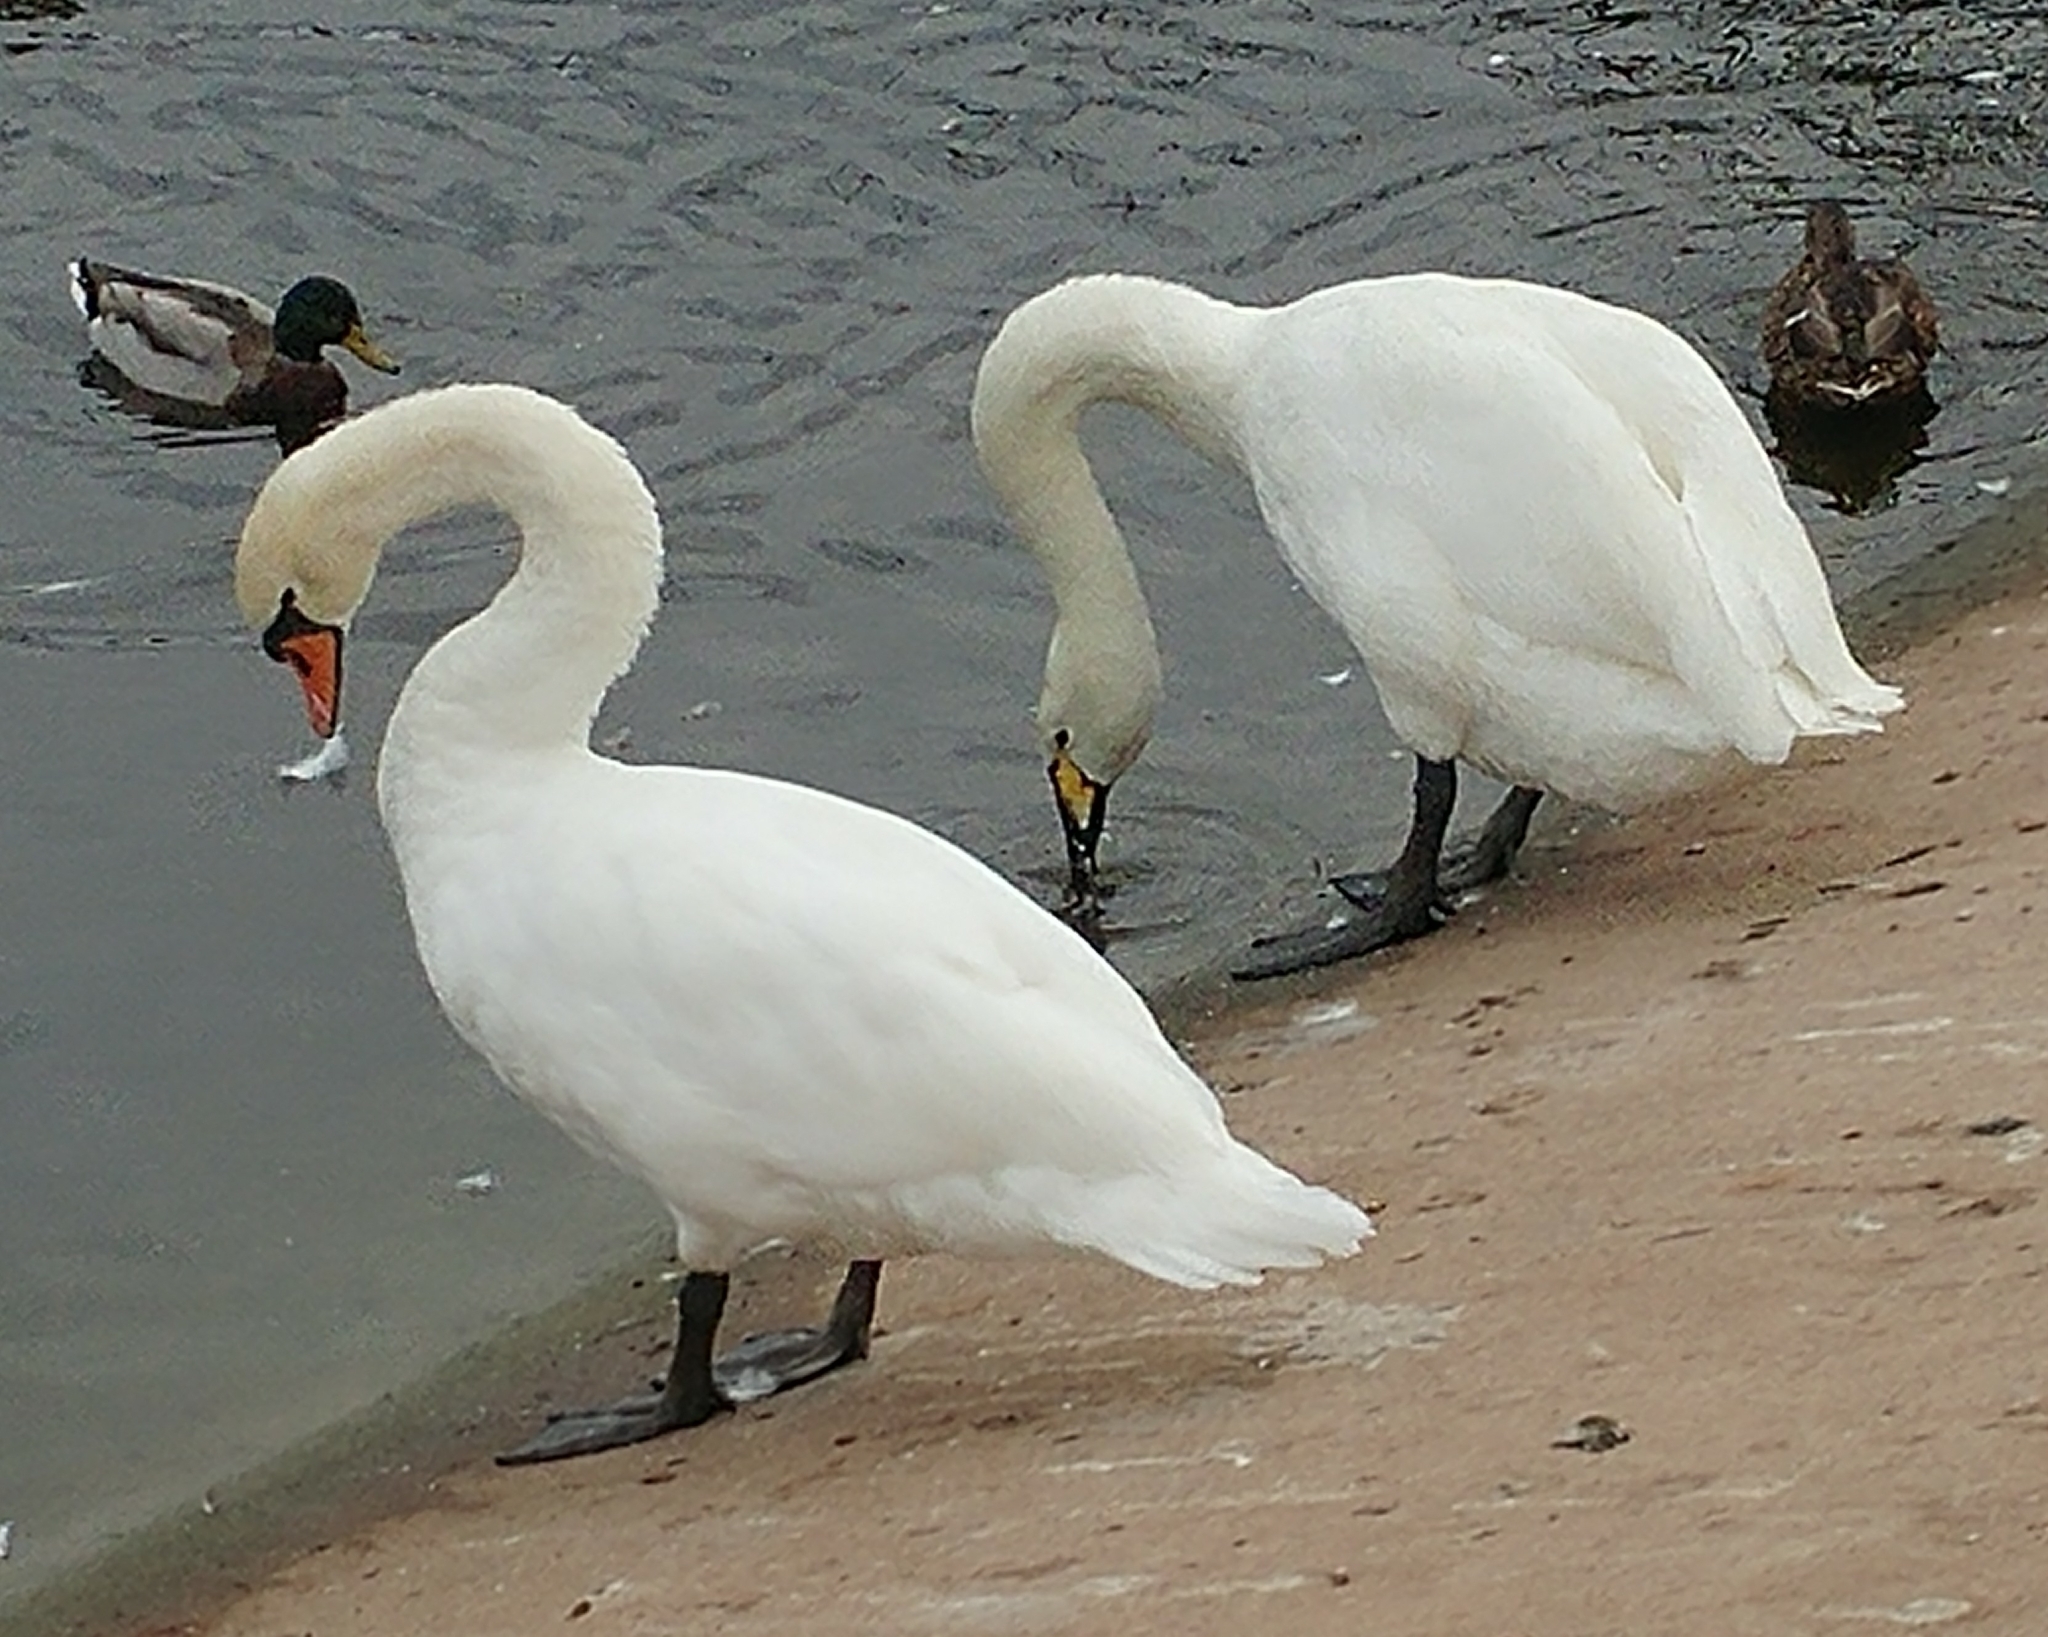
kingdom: Animalia
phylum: Chordata
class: Aves
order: Anseriformes
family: Anatidae
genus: Cygnus
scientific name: Cygnus olor
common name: Mute swan
